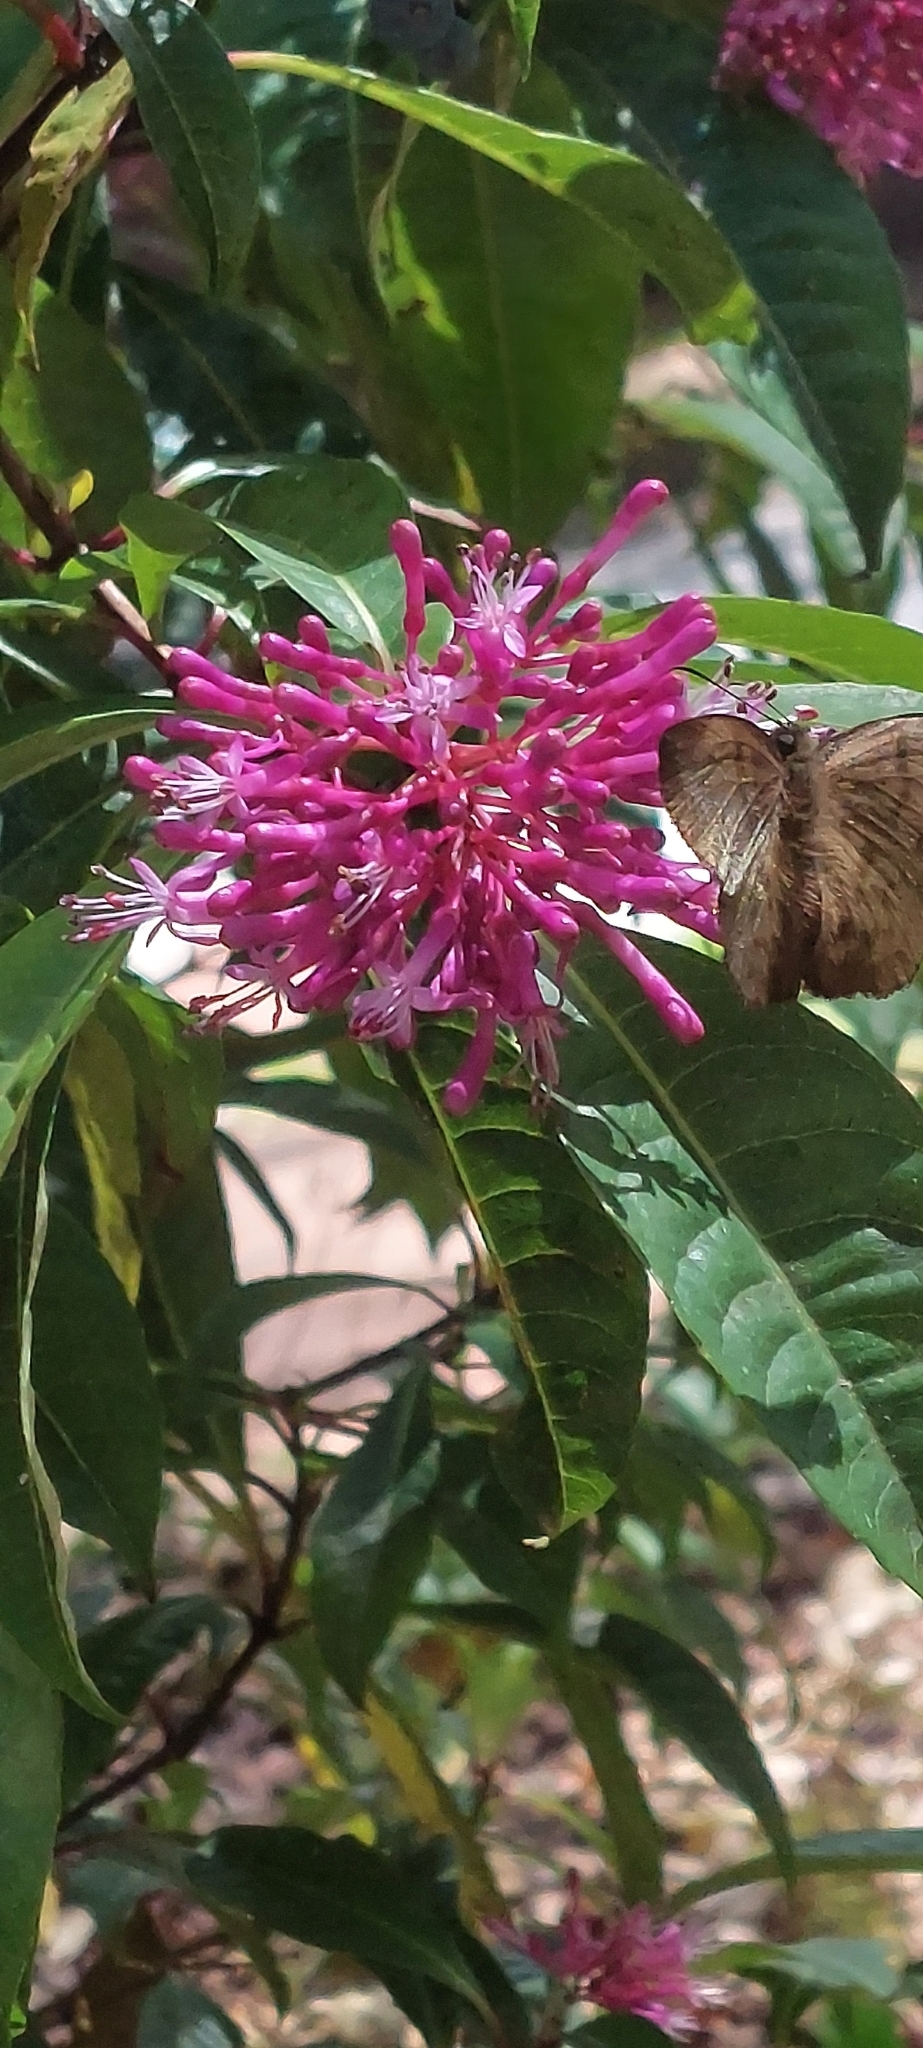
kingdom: Animalia
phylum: Arthropoda
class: Insecta
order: Lepidoptera
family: Hesperiidae
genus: Achlyodes
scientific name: Achlyodes pallida
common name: Pale sicklewing
